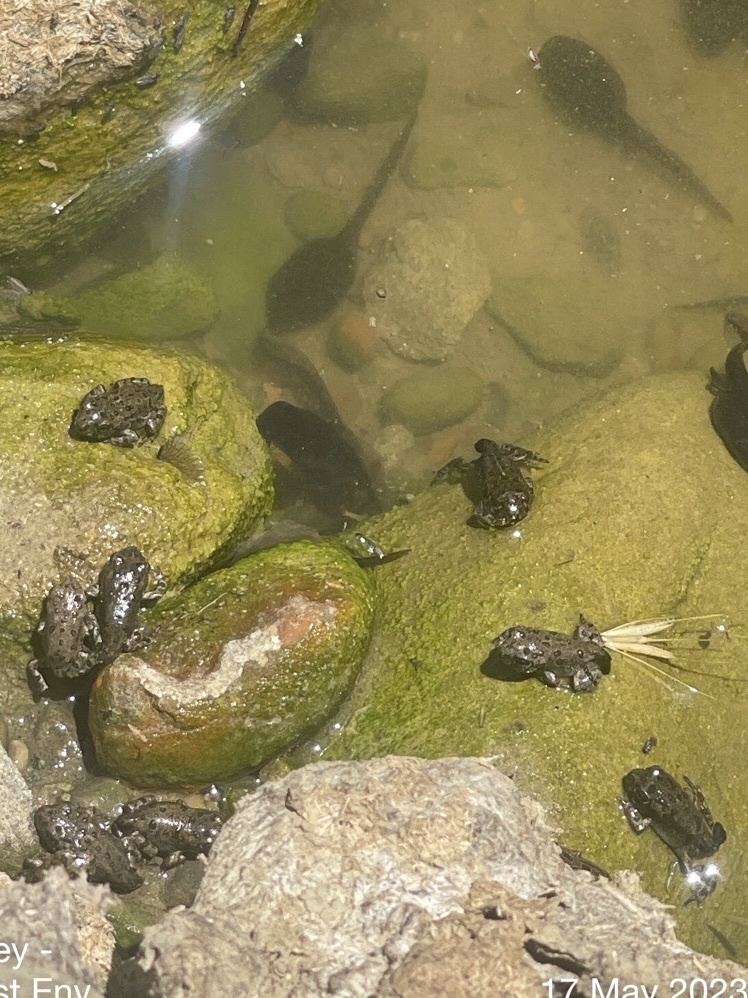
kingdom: Animalia
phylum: Chordata
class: Amphibia
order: Anura
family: Bufonidae
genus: Anaxyrus
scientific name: Anaxyrus boreas
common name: Western toad
